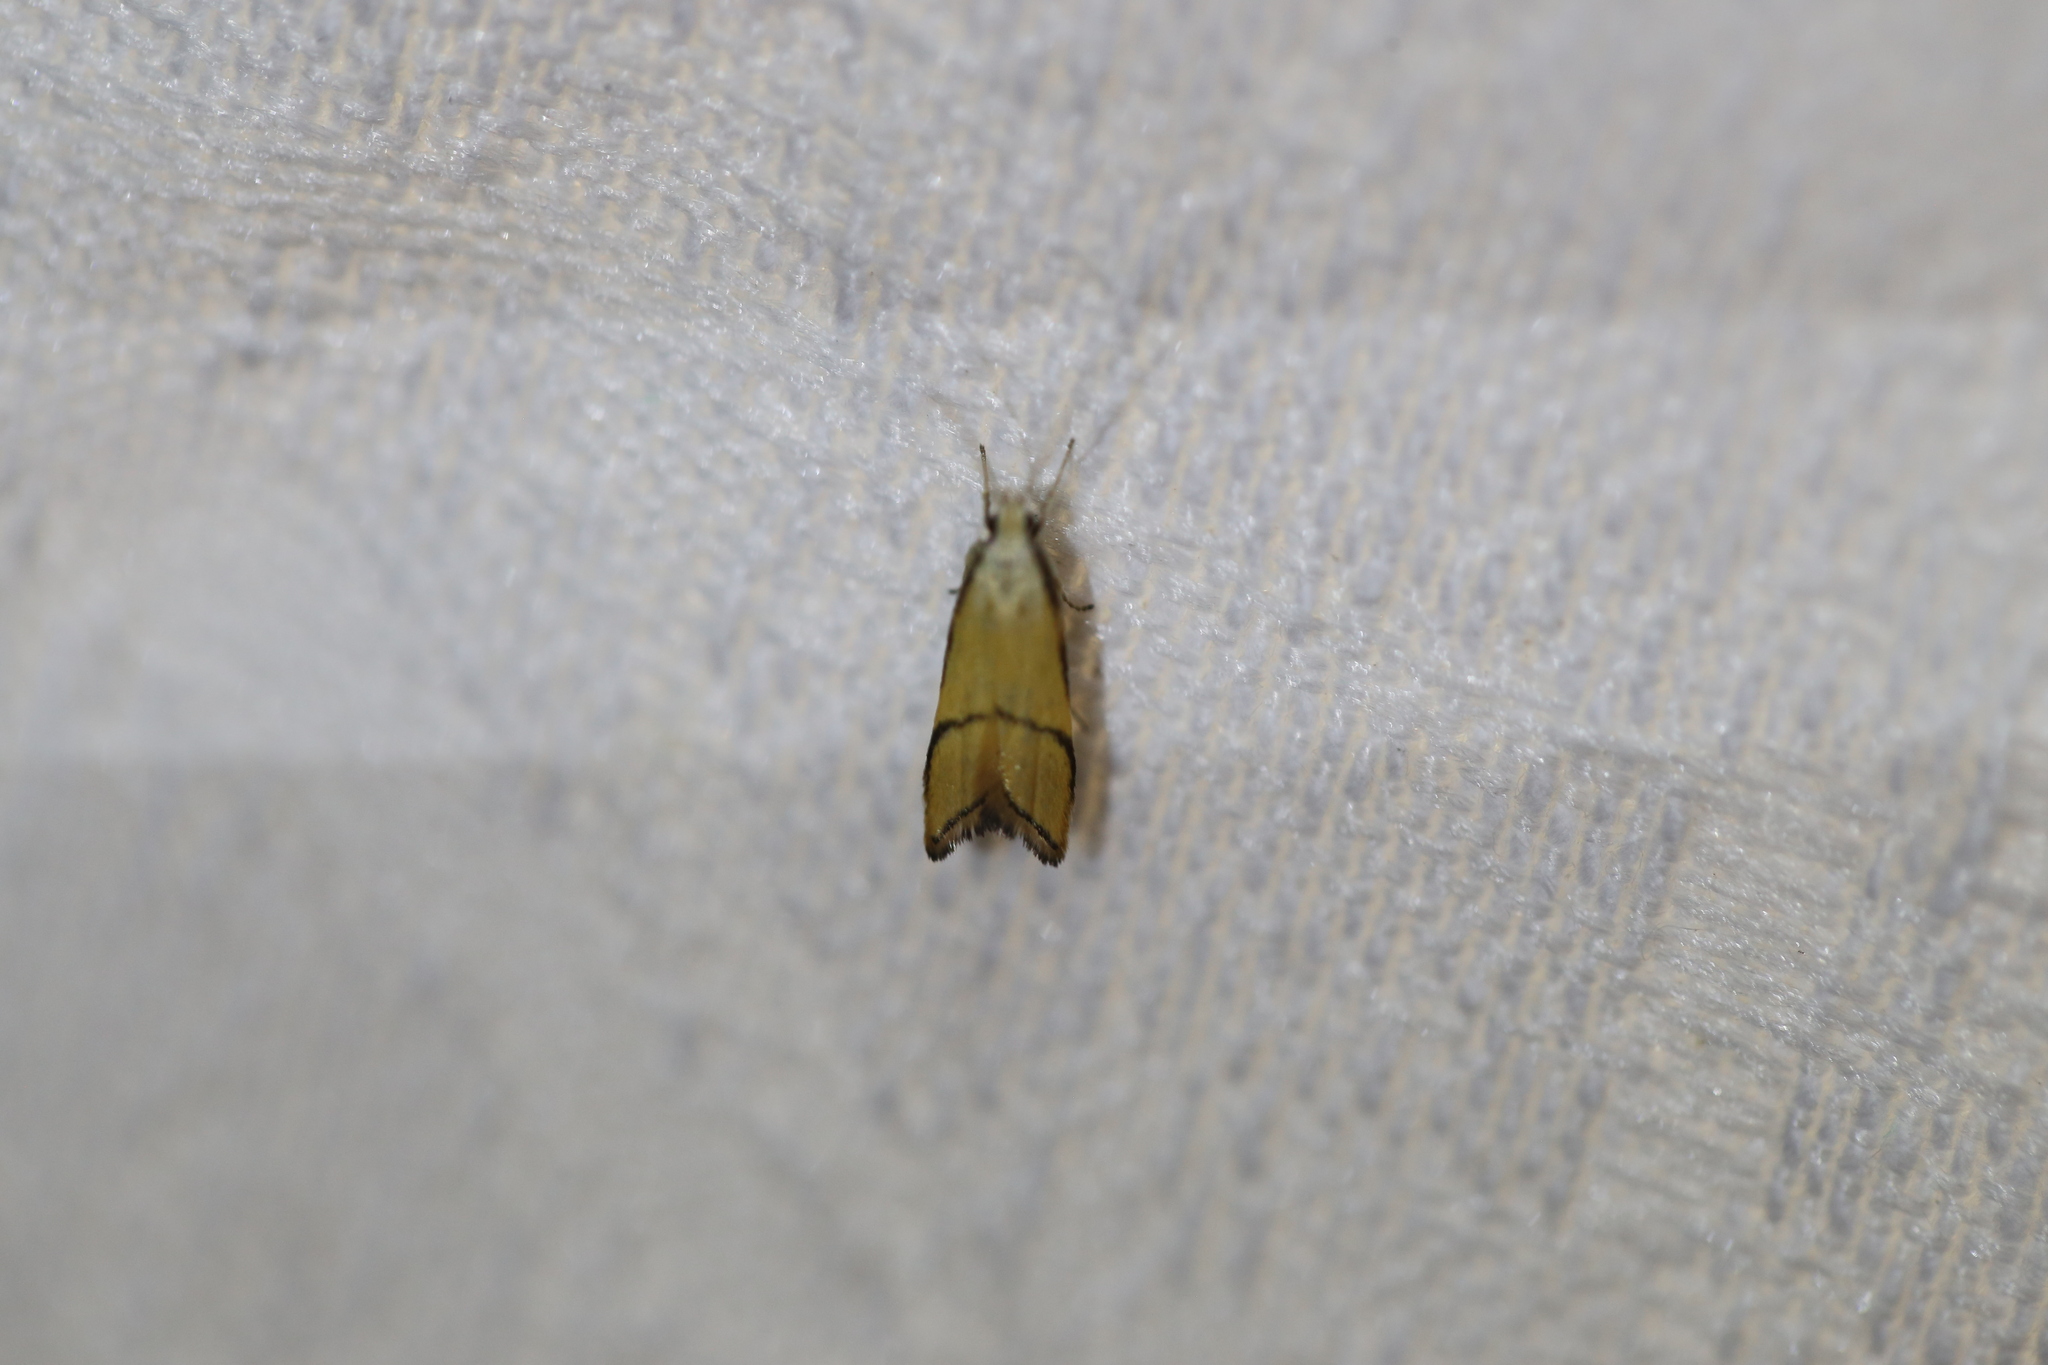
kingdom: Animalia
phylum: Arthropoda
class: Insecta
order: Lepidoptera
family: Lecithoceridae
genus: Crocanthes
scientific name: Crocanthes perigrapta
